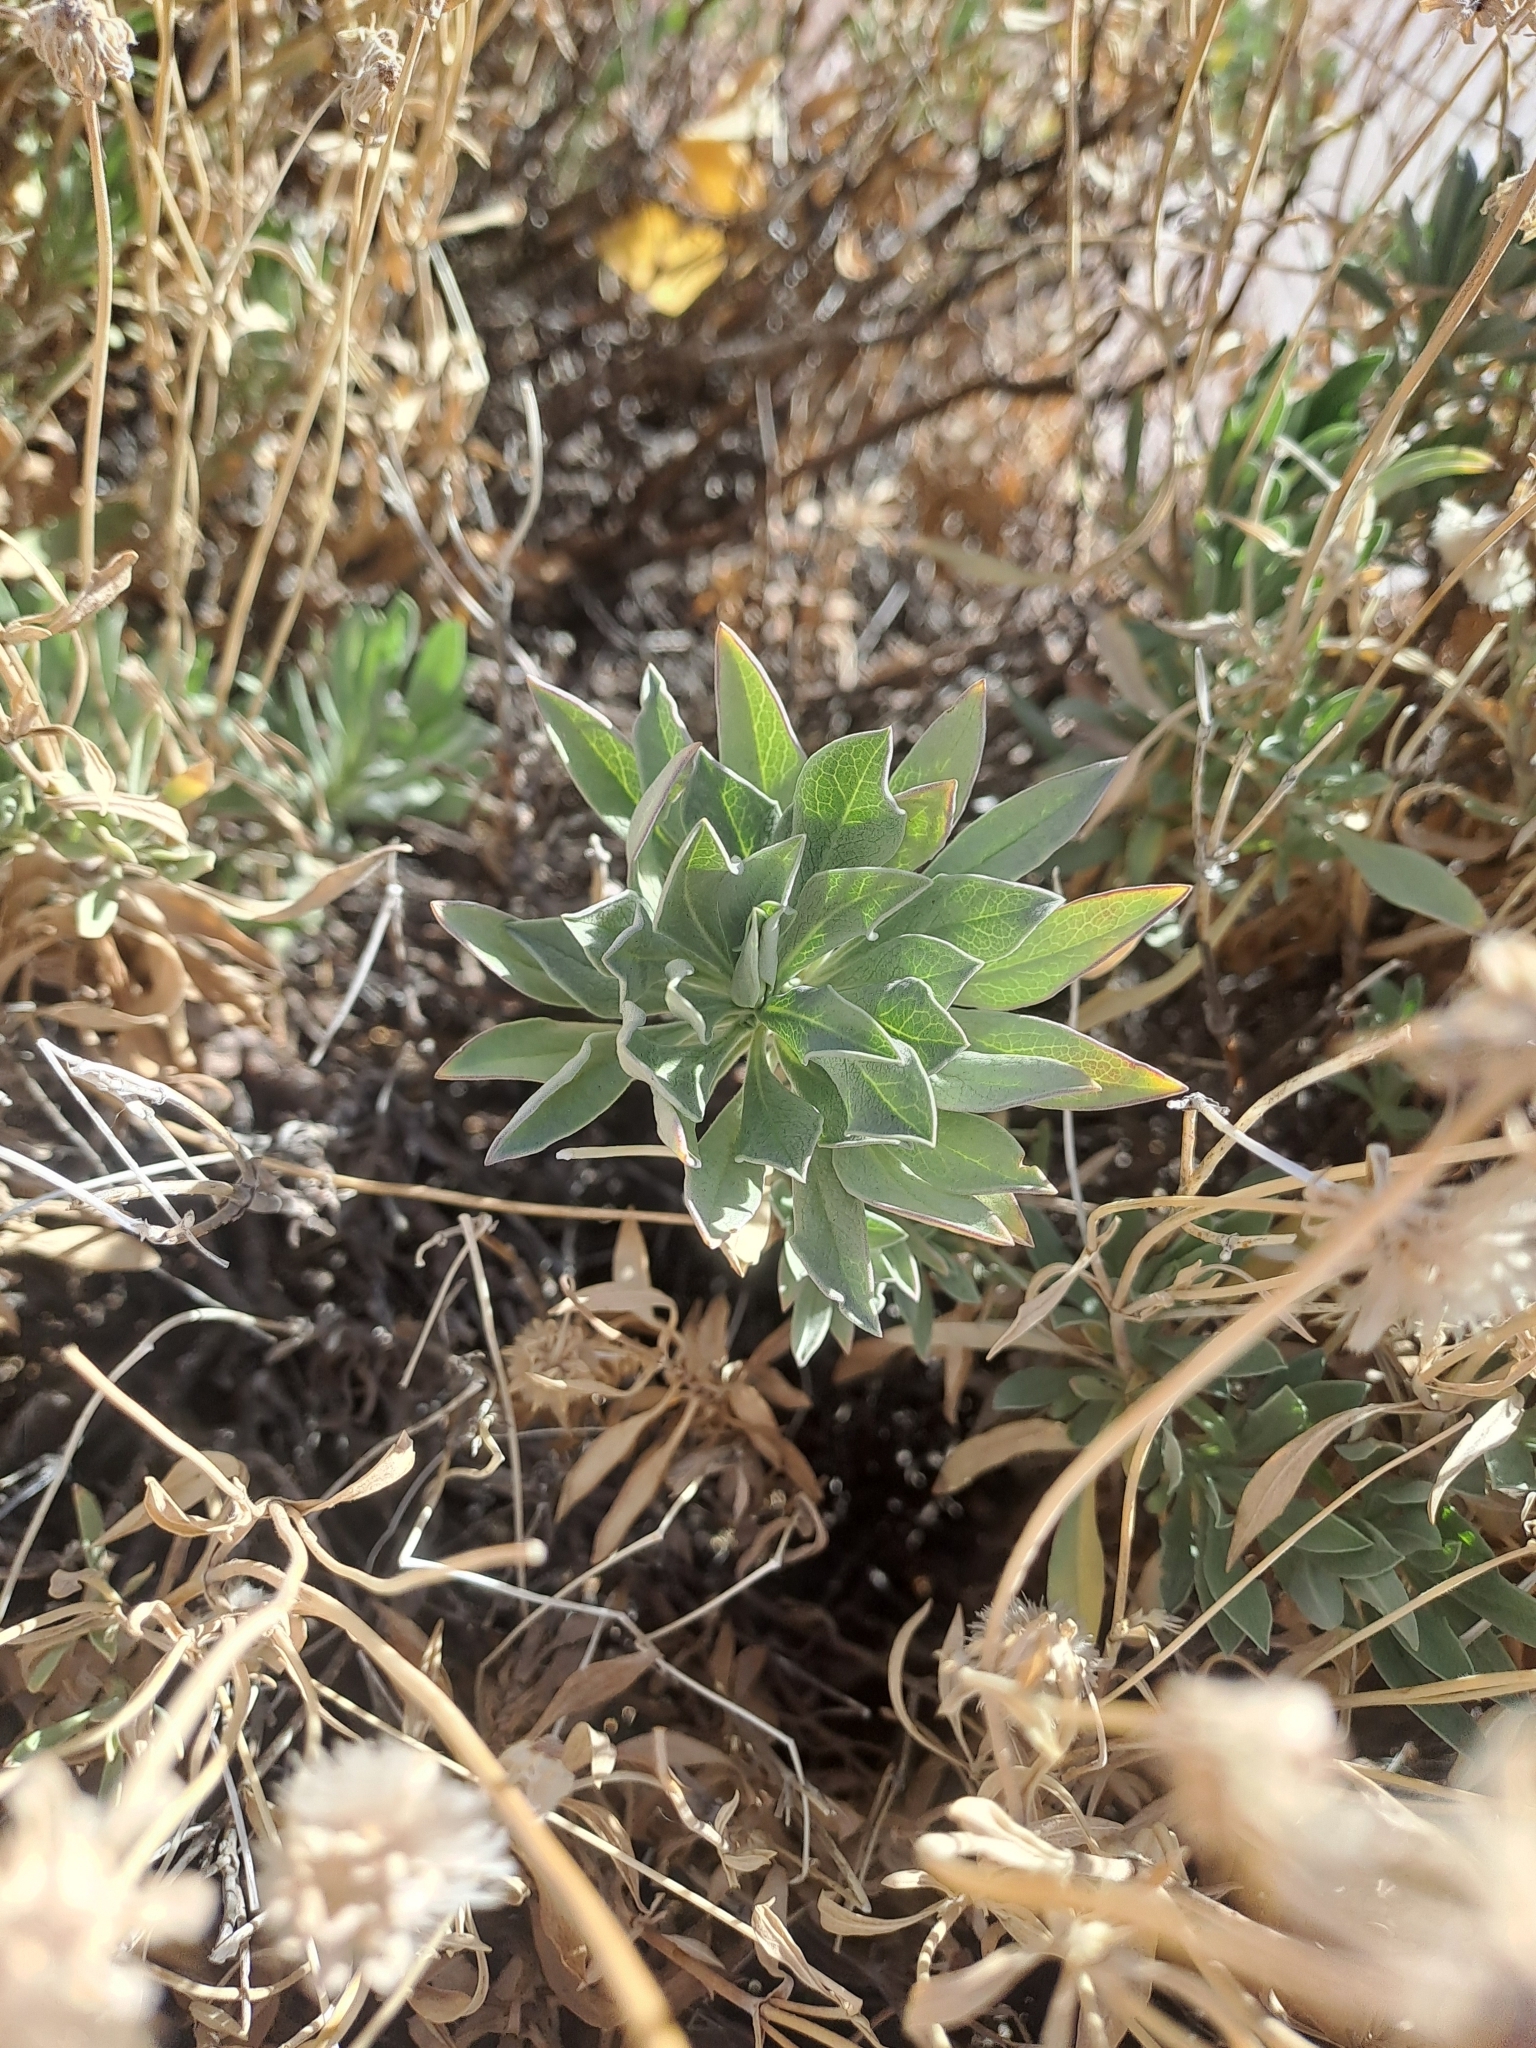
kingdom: Plantae
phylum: Tracheophyta
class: Magnoliopsida
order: Dipsacales
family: Caprifoliaceae
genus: Pterocephalus
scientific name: Pterocephalus lasiospermus
